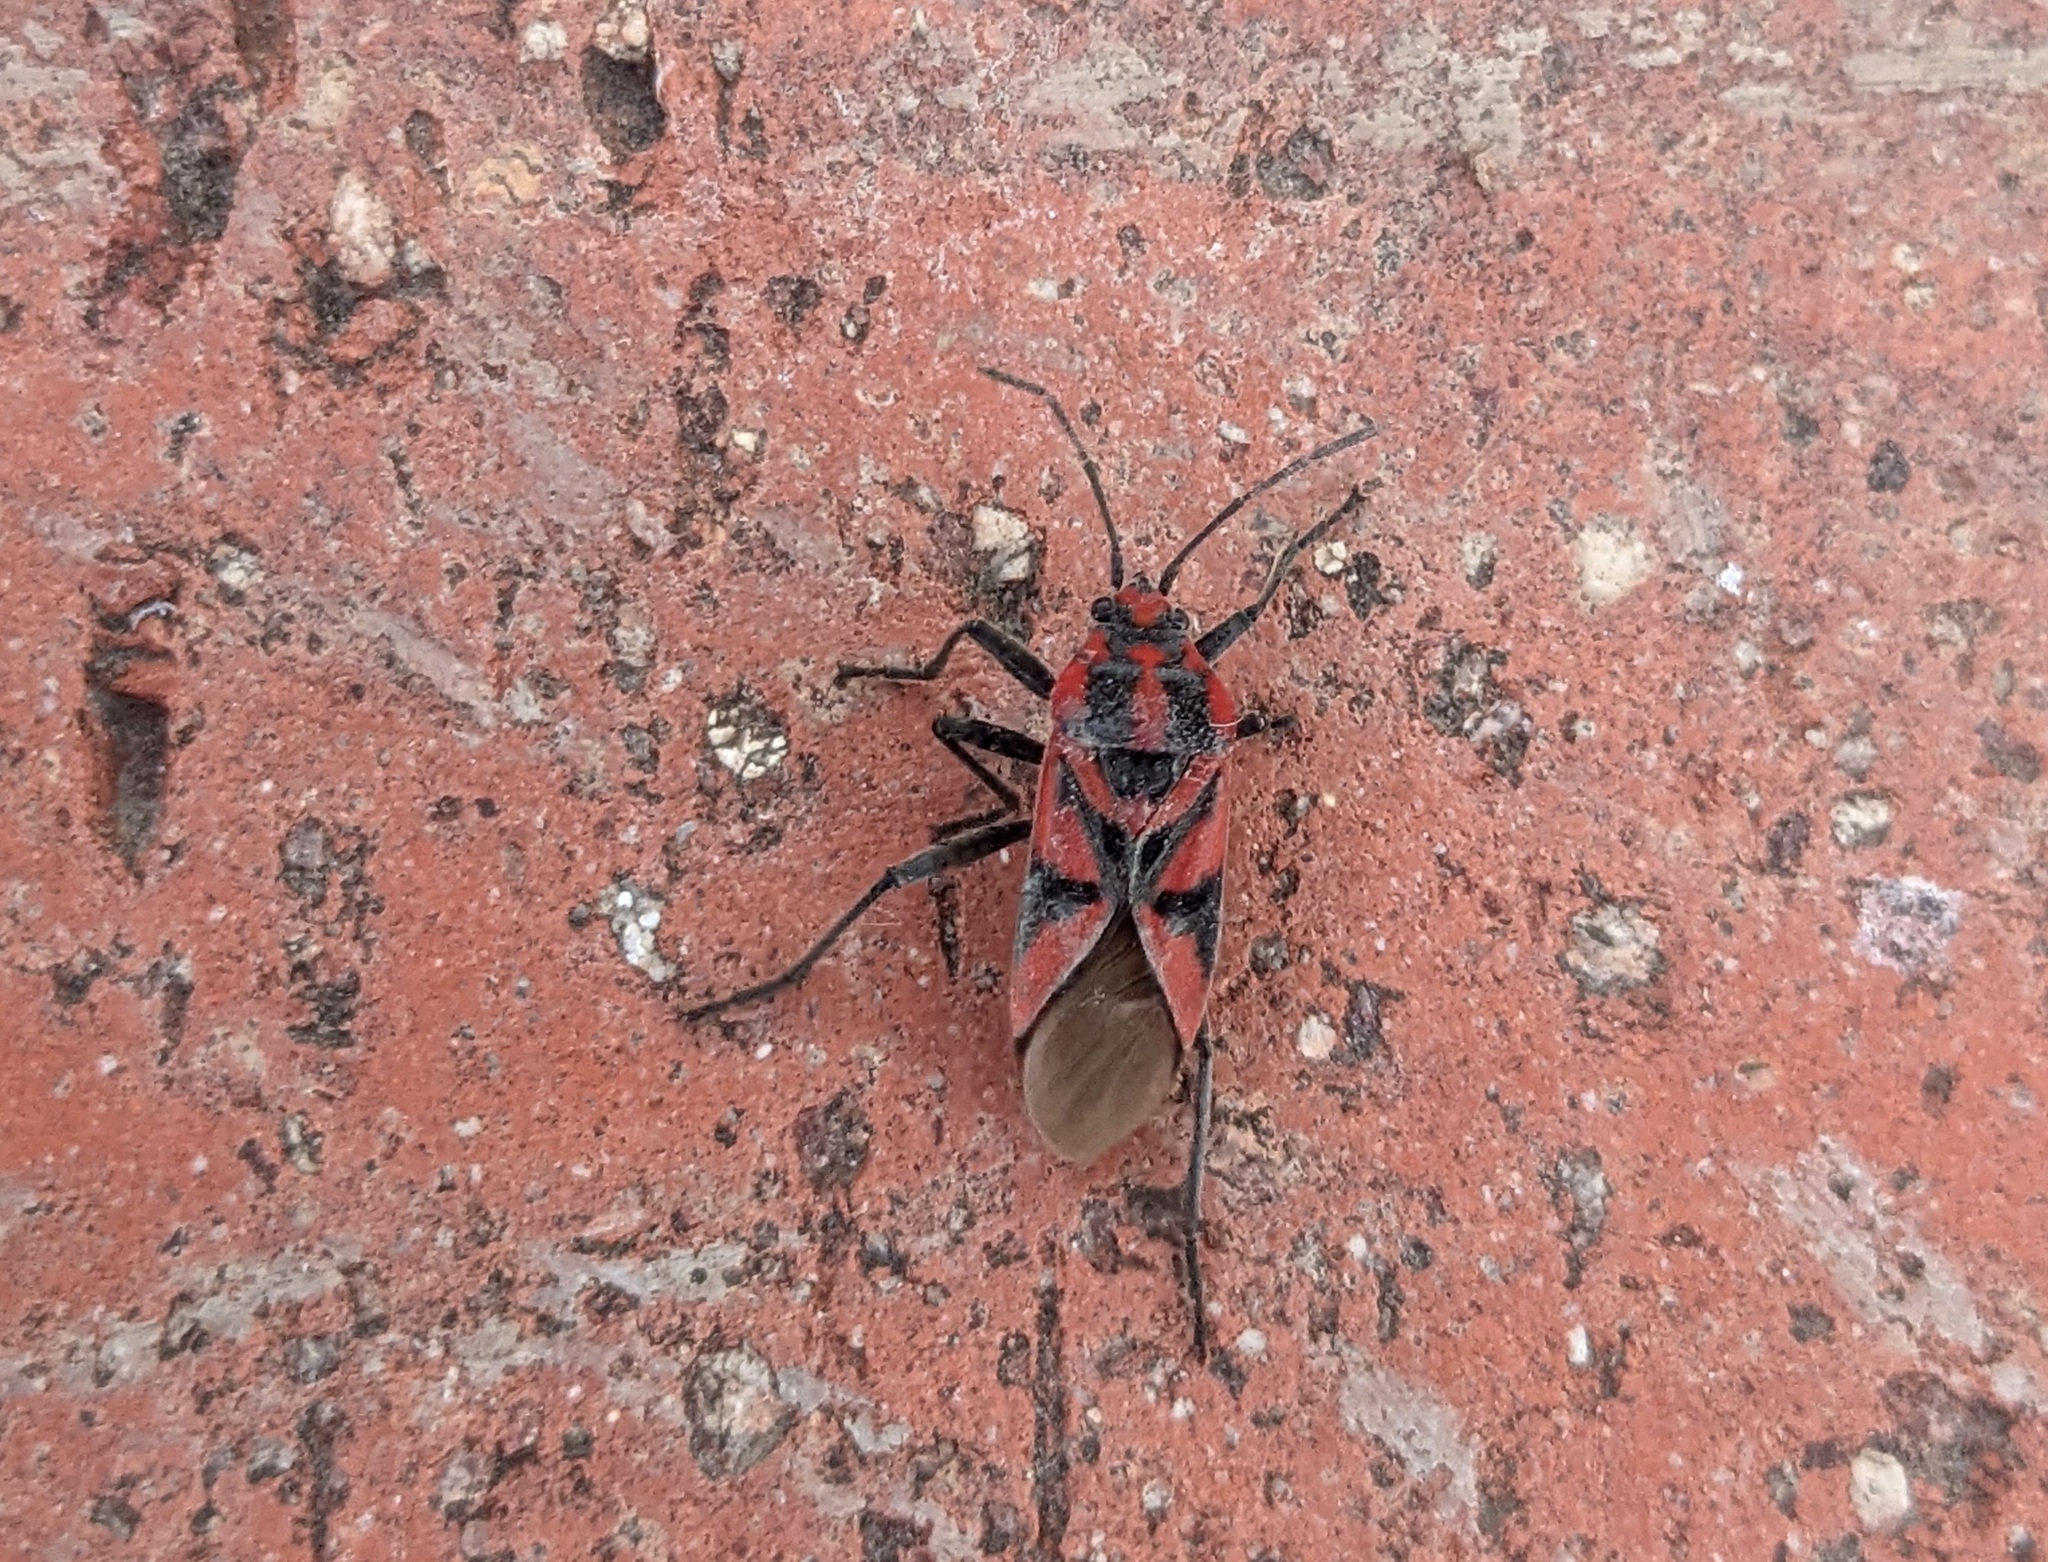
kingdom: Animalia
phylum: Arthropoda
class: Insecta
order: Hemiptera
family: Lygaeidae
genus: Spilostethus
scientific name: Spilostethus furcula
